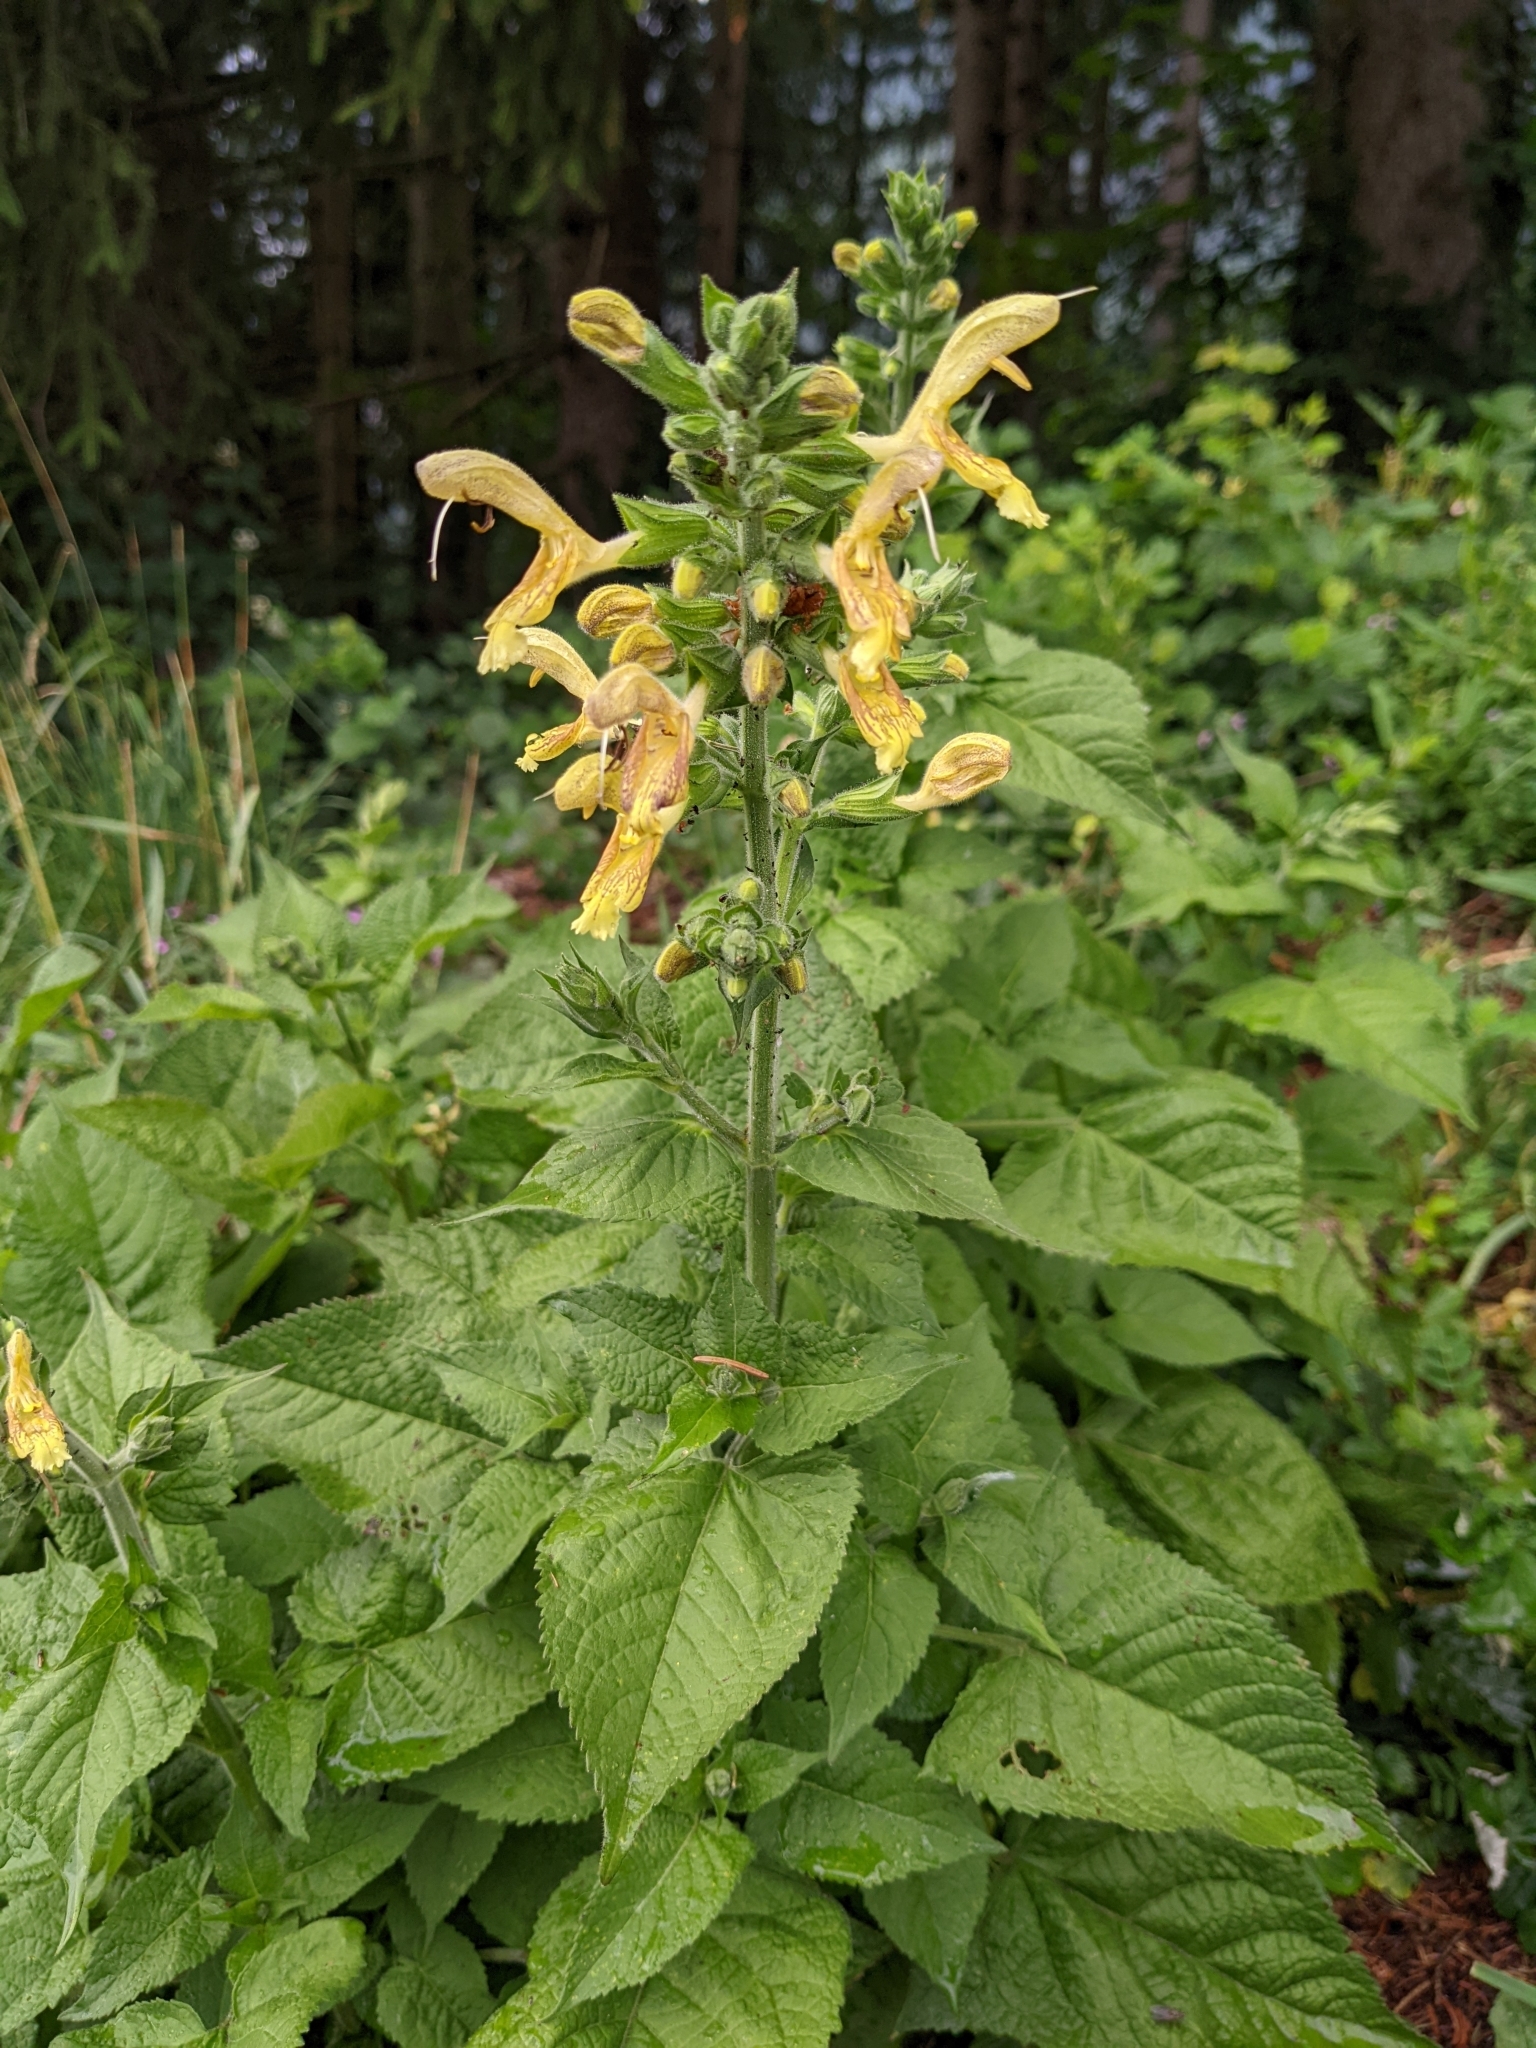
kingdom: Plantae
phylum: Tracheophyta
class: Magnoliopsida
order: Lamiales
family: Lamiaceae
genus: Salvia
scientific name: Salvia glutinosa
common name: Sticky clary
